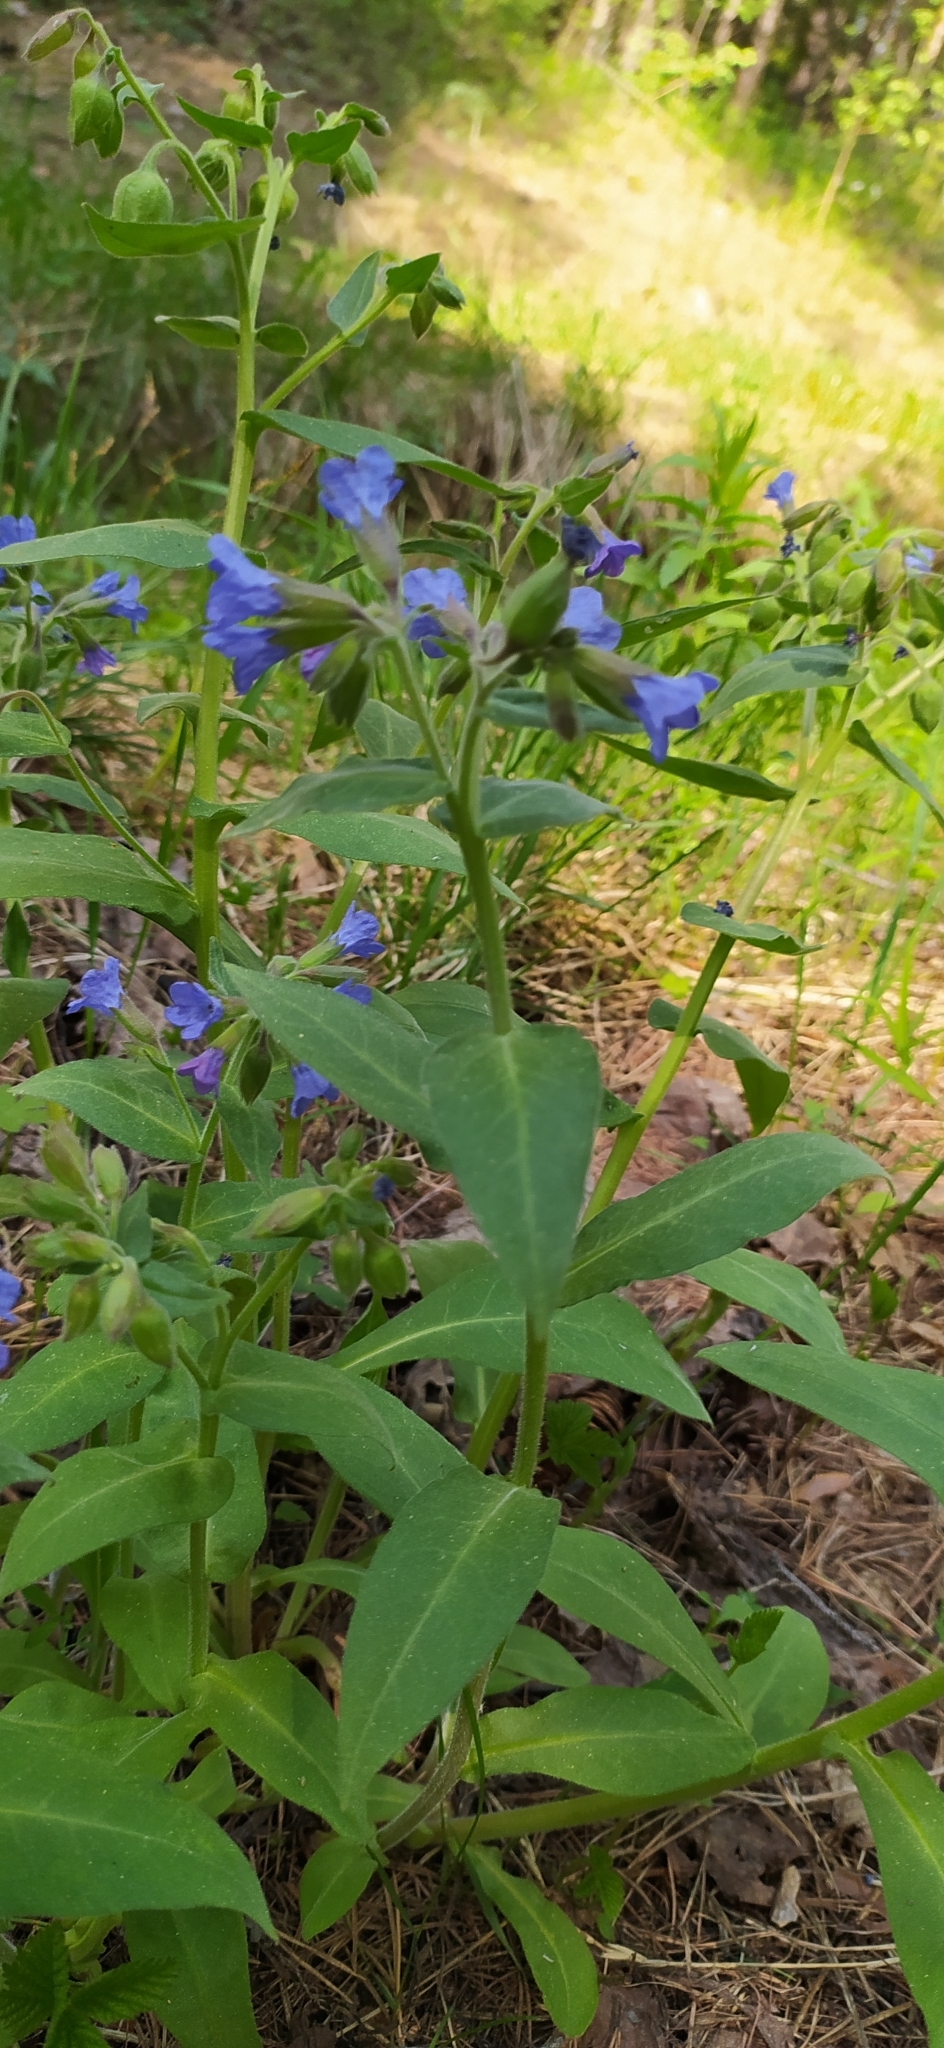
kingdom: Plantae
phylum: Tracheophyta
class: Magnoliopsida
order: Boraginales
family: Boraginaceae
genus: Pulmonaria
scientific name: Pulmonaria mollis
